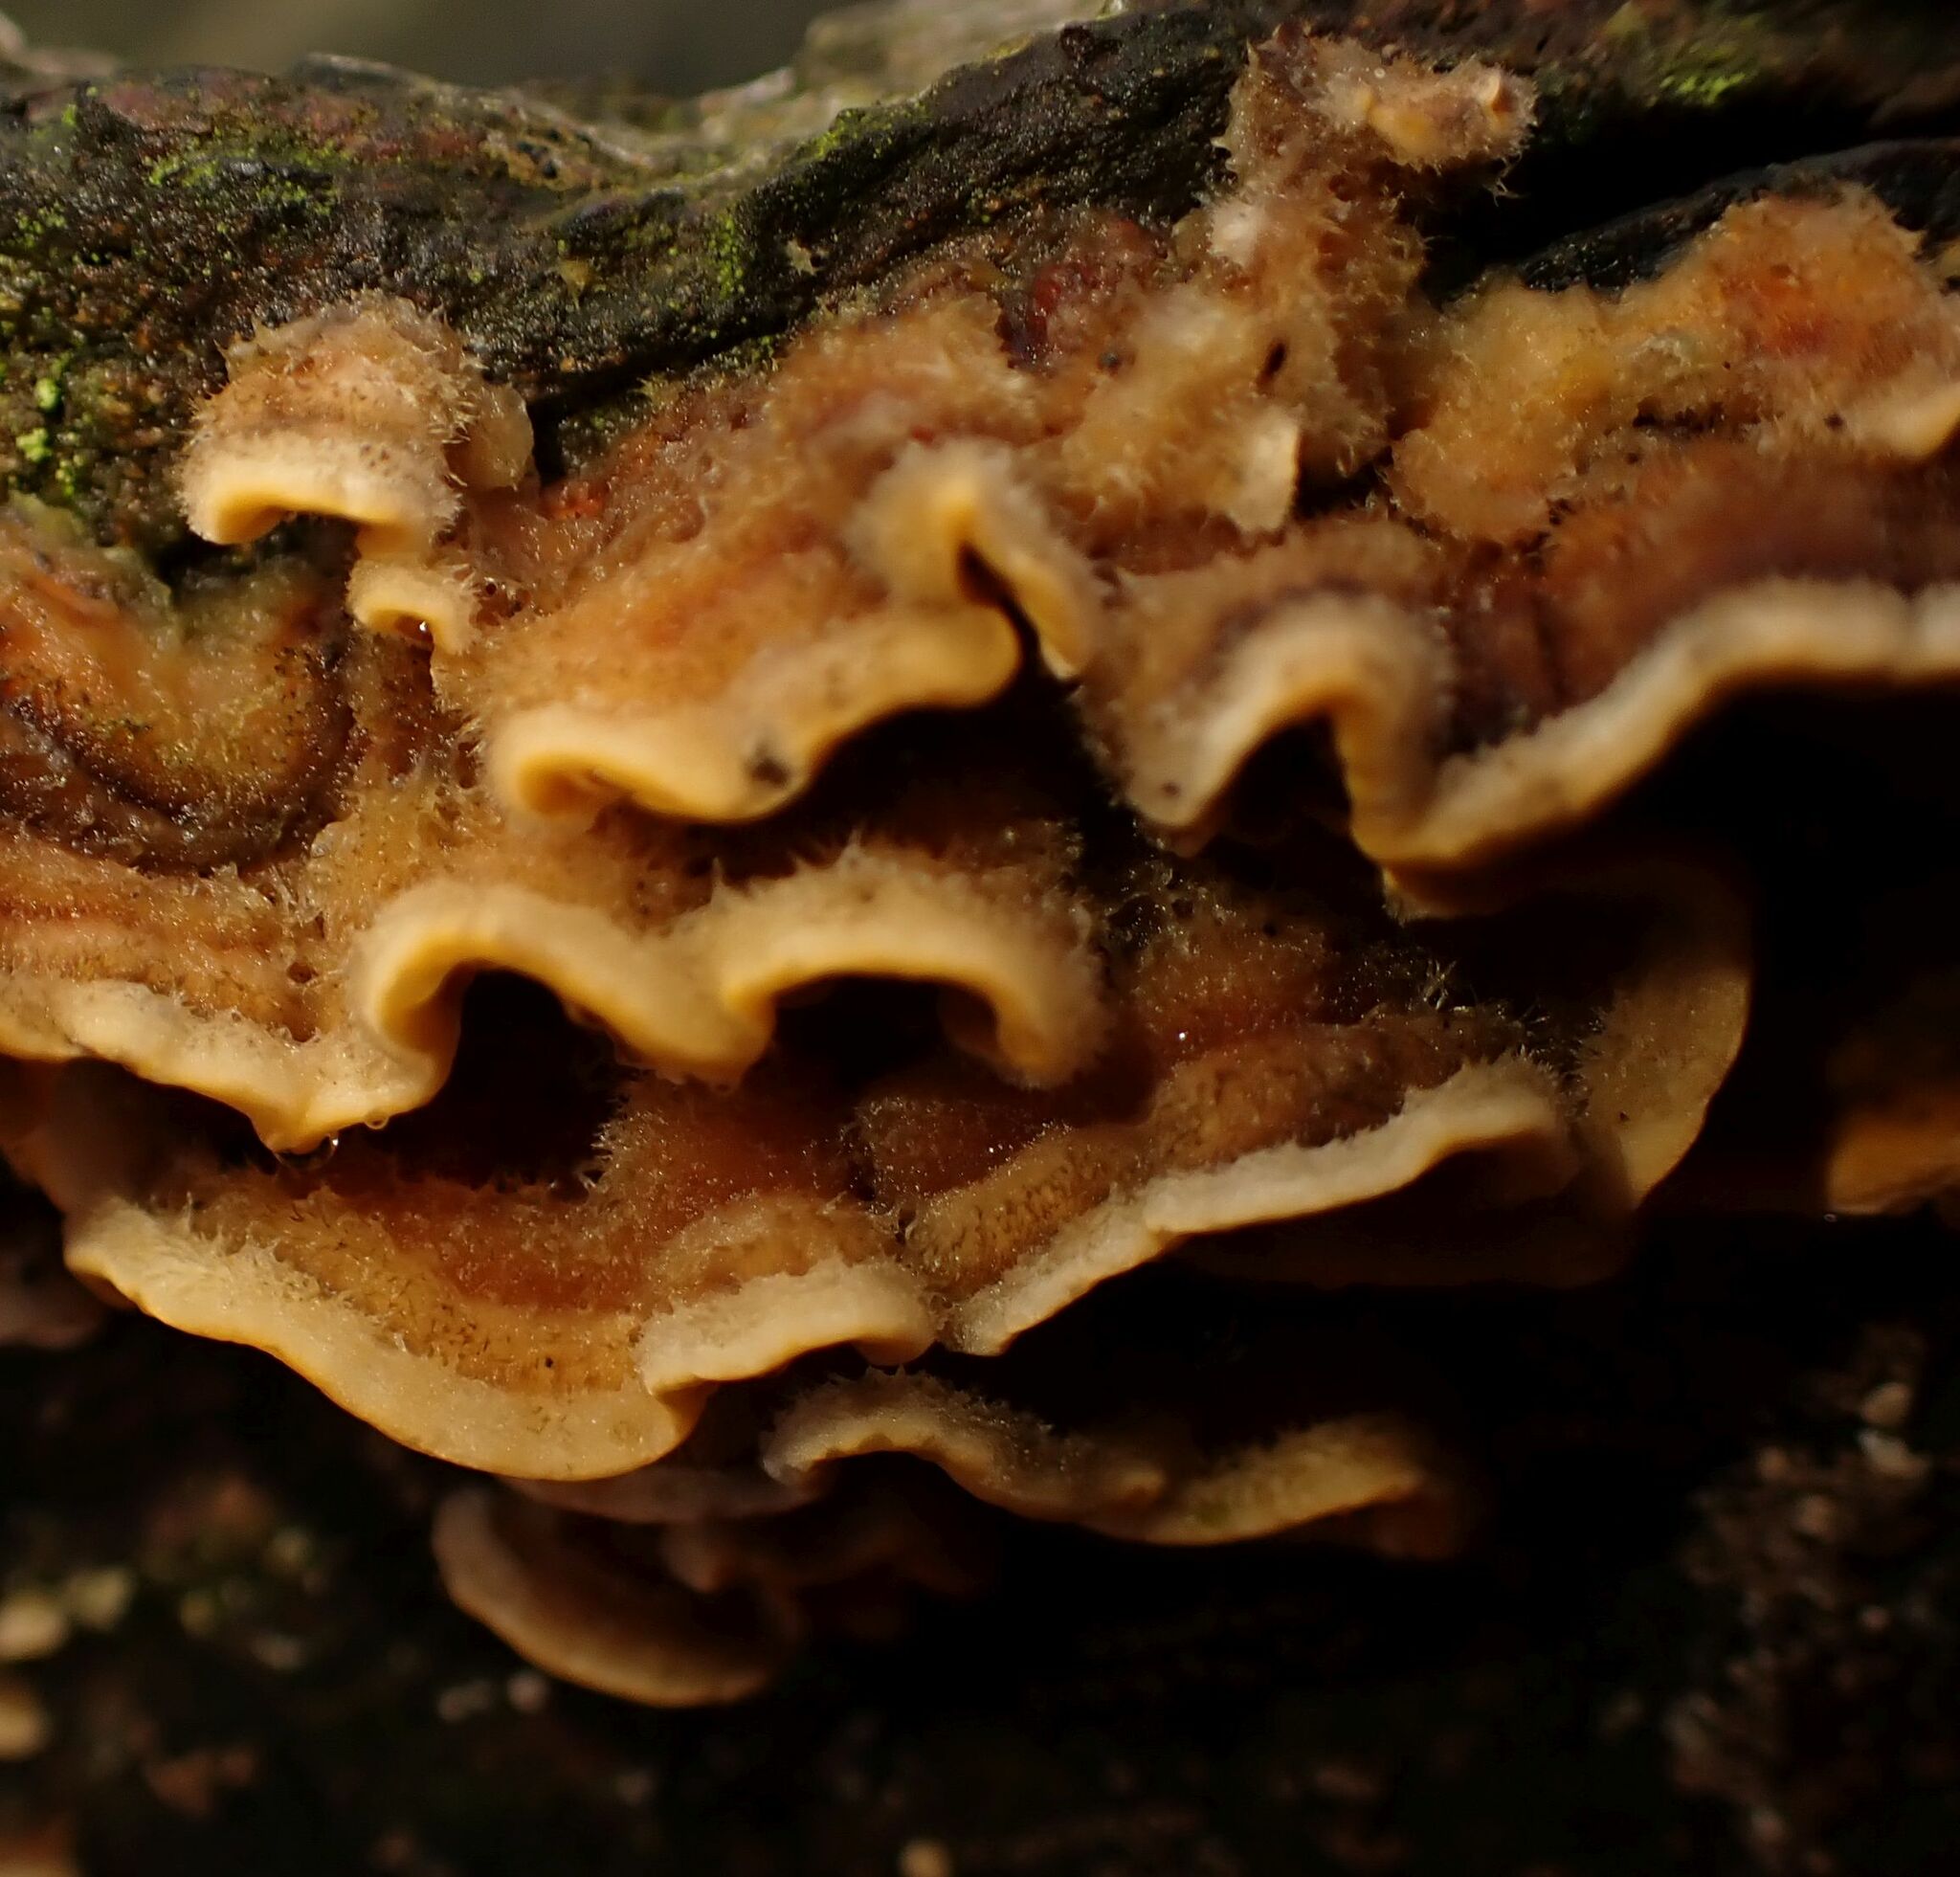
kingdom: Fungi
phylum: Basidiomycota
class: Agaricomycetes
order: Russulales
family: Stereaceae
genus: Stereum
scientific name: Stereum hirsutum
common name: Hairy curtain crust
